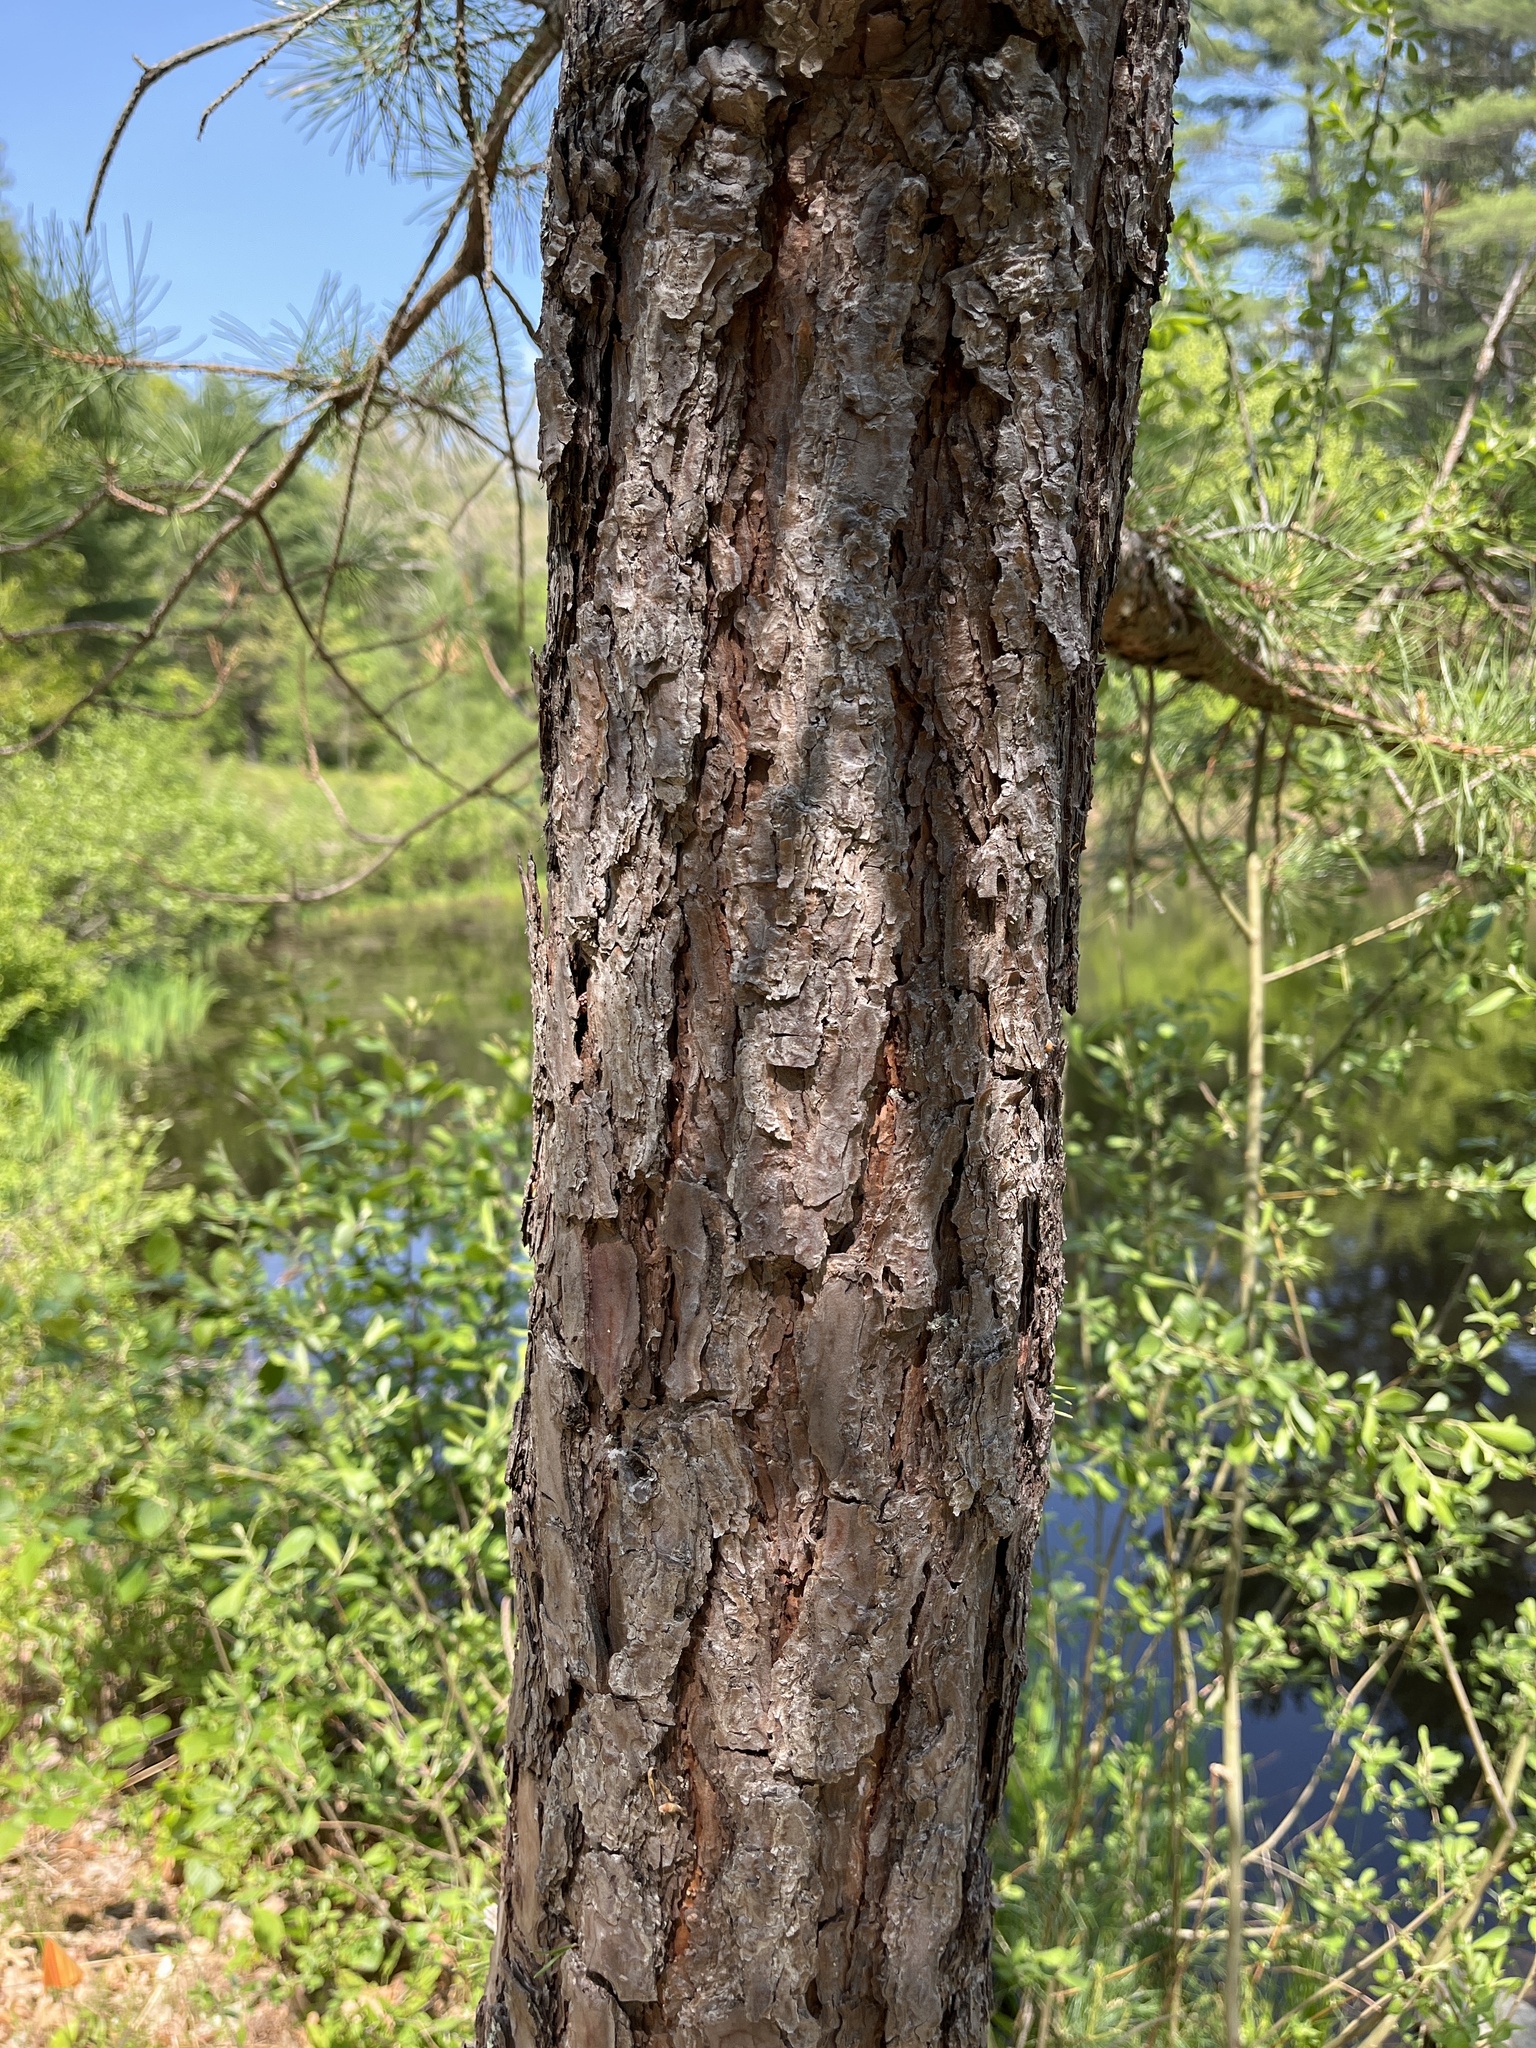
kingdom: Plantae
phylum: Tracheophyta
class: Pinopsida
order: Pinales
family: Pinaceae
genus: Pinus
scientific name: Pinus rigida
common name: Pitch pine
